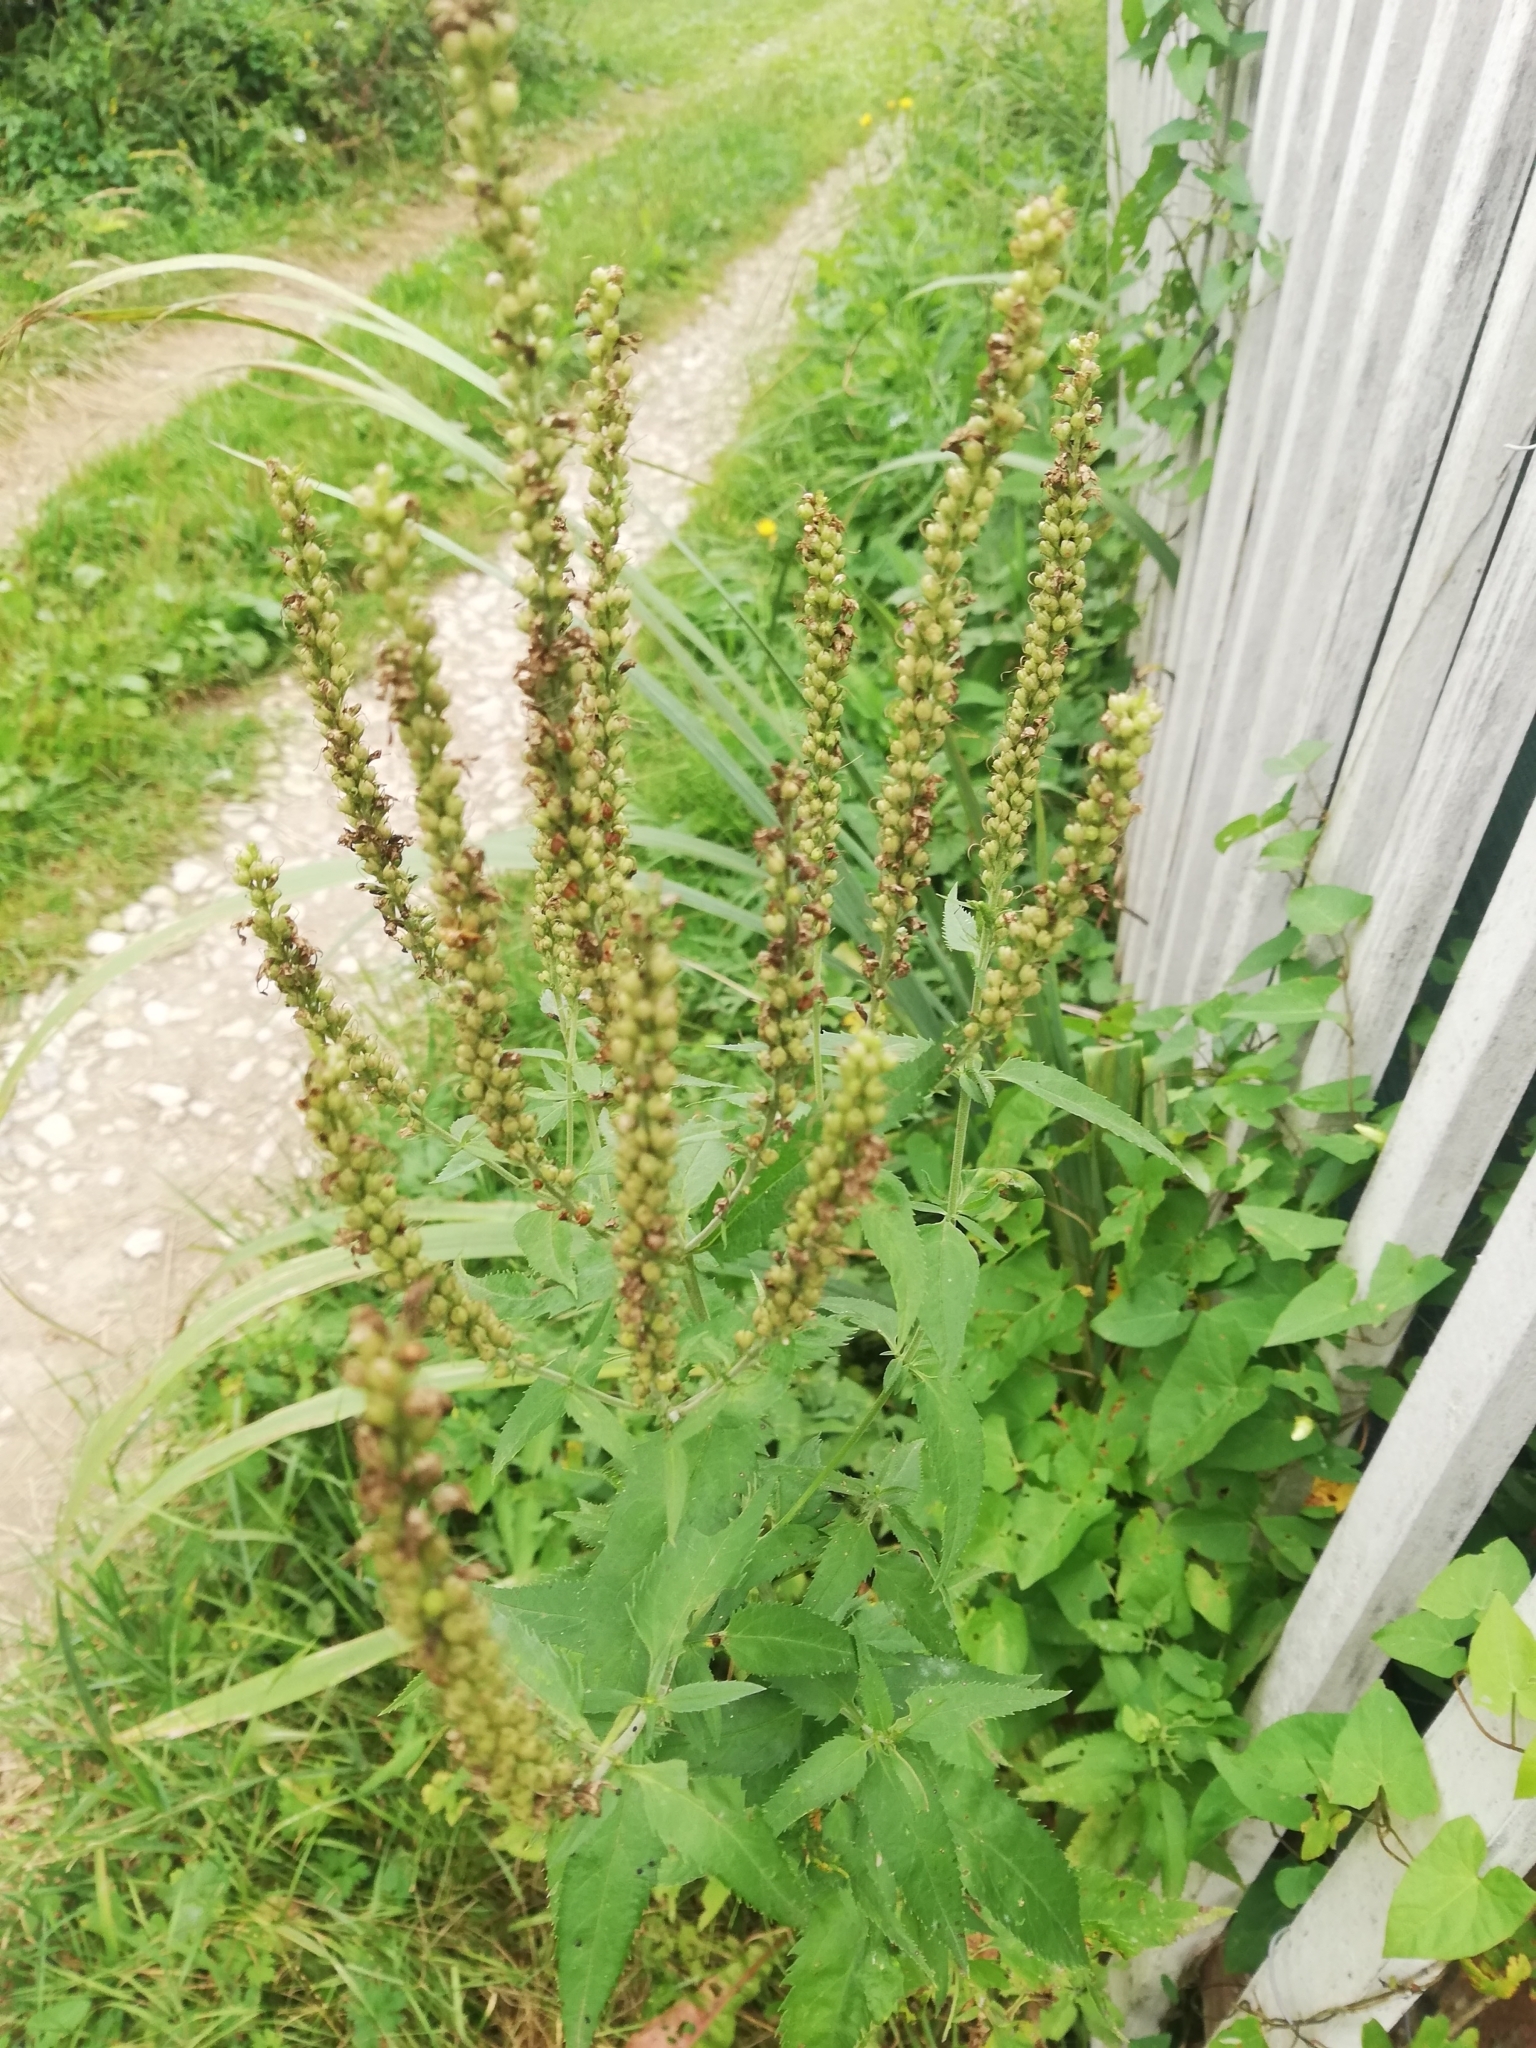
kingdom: Plantae
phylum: Tracheophyta
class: Magnoliopsida
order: Lamiales
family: Plantaginaceae
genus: Veronica
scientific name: Veronica longifolia
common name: Garden speedwell
